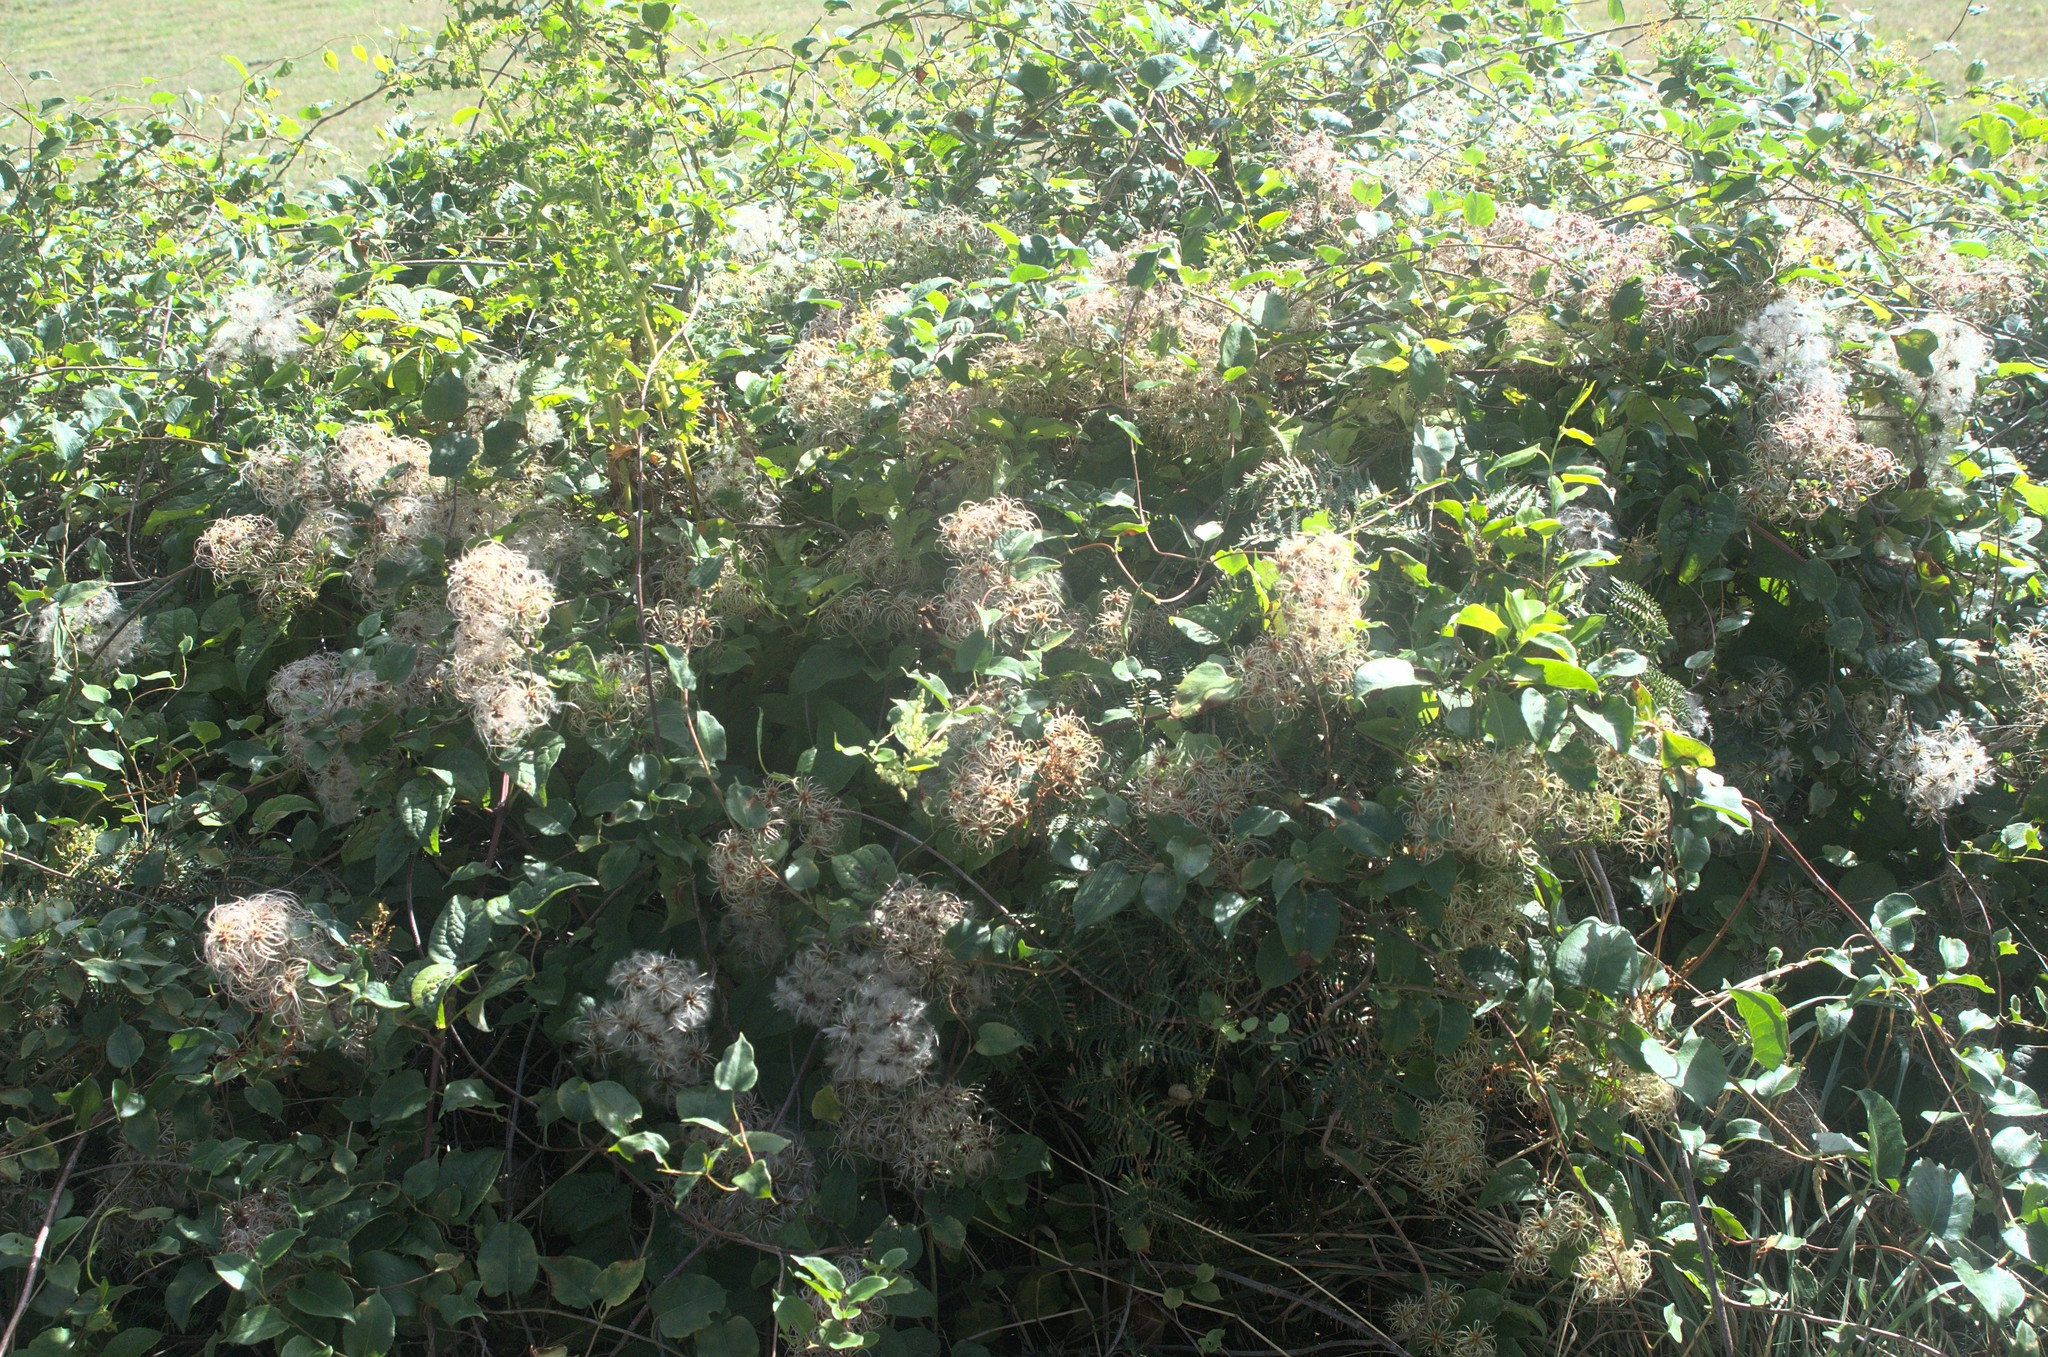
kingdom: Plantae
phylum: Tracheophyta
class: Magnoliopsida
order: Ranunculales
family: Ranunculaceae
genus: Clematis
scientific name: Clematis vitalba
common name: Evergreen clematis
